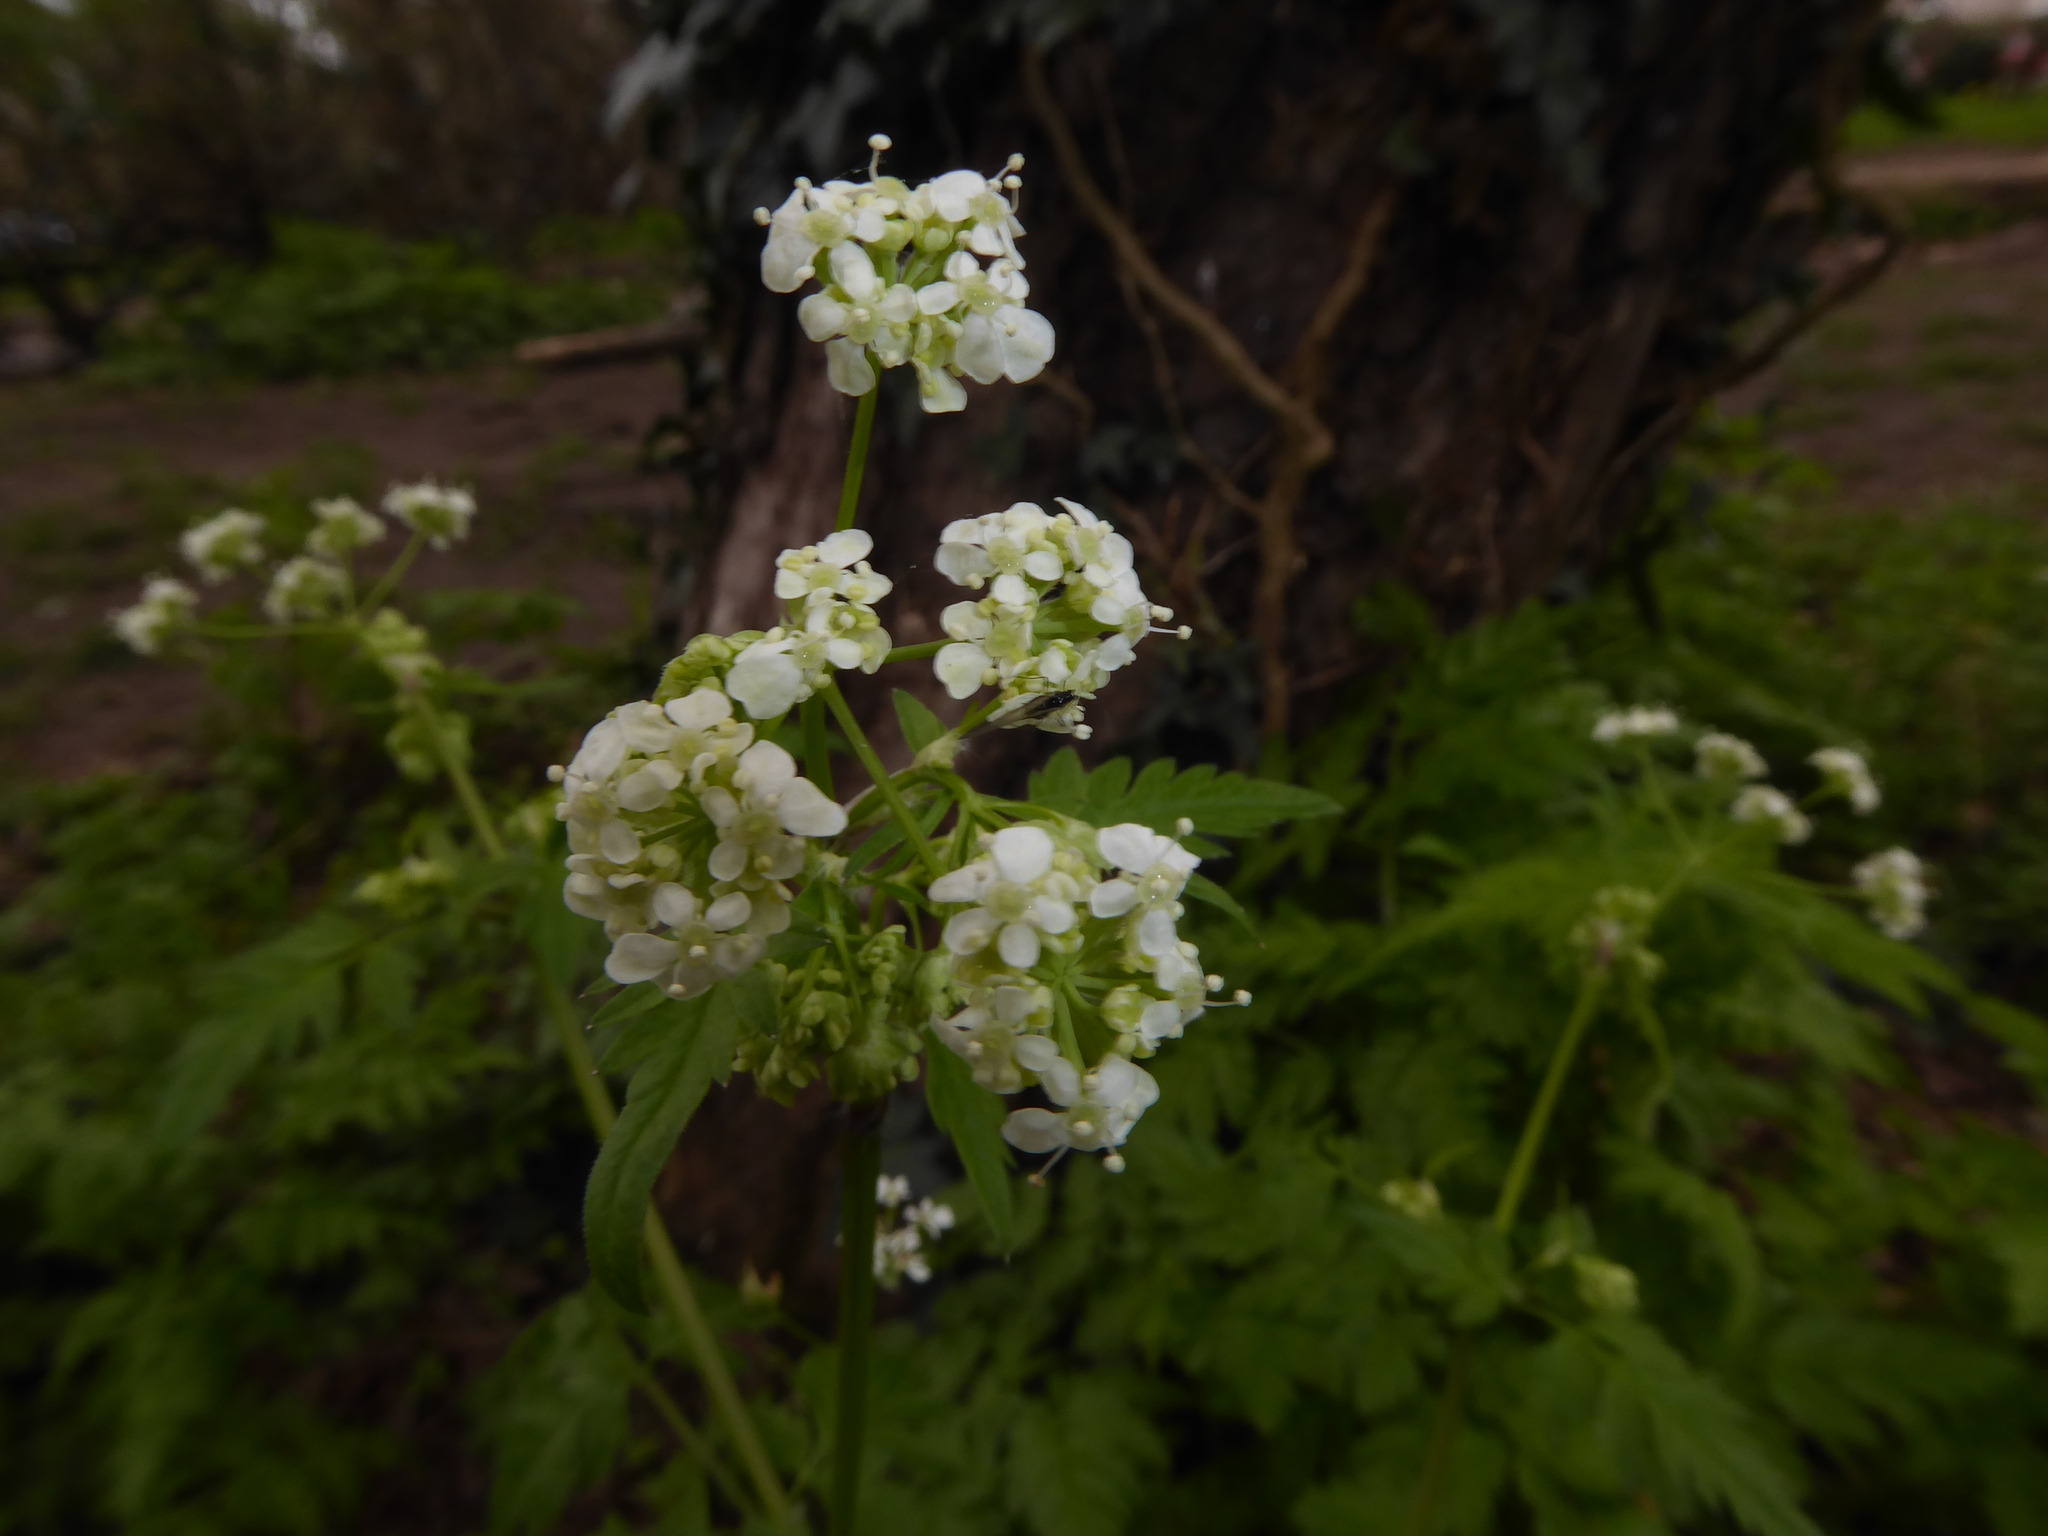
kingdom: Plantae
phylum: Tracheophyta
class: Magnoliopsida
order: Apiales
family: Apiaceae
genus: Anthriscus
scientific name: Anthriscus sylvestris
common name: Cow parsley
